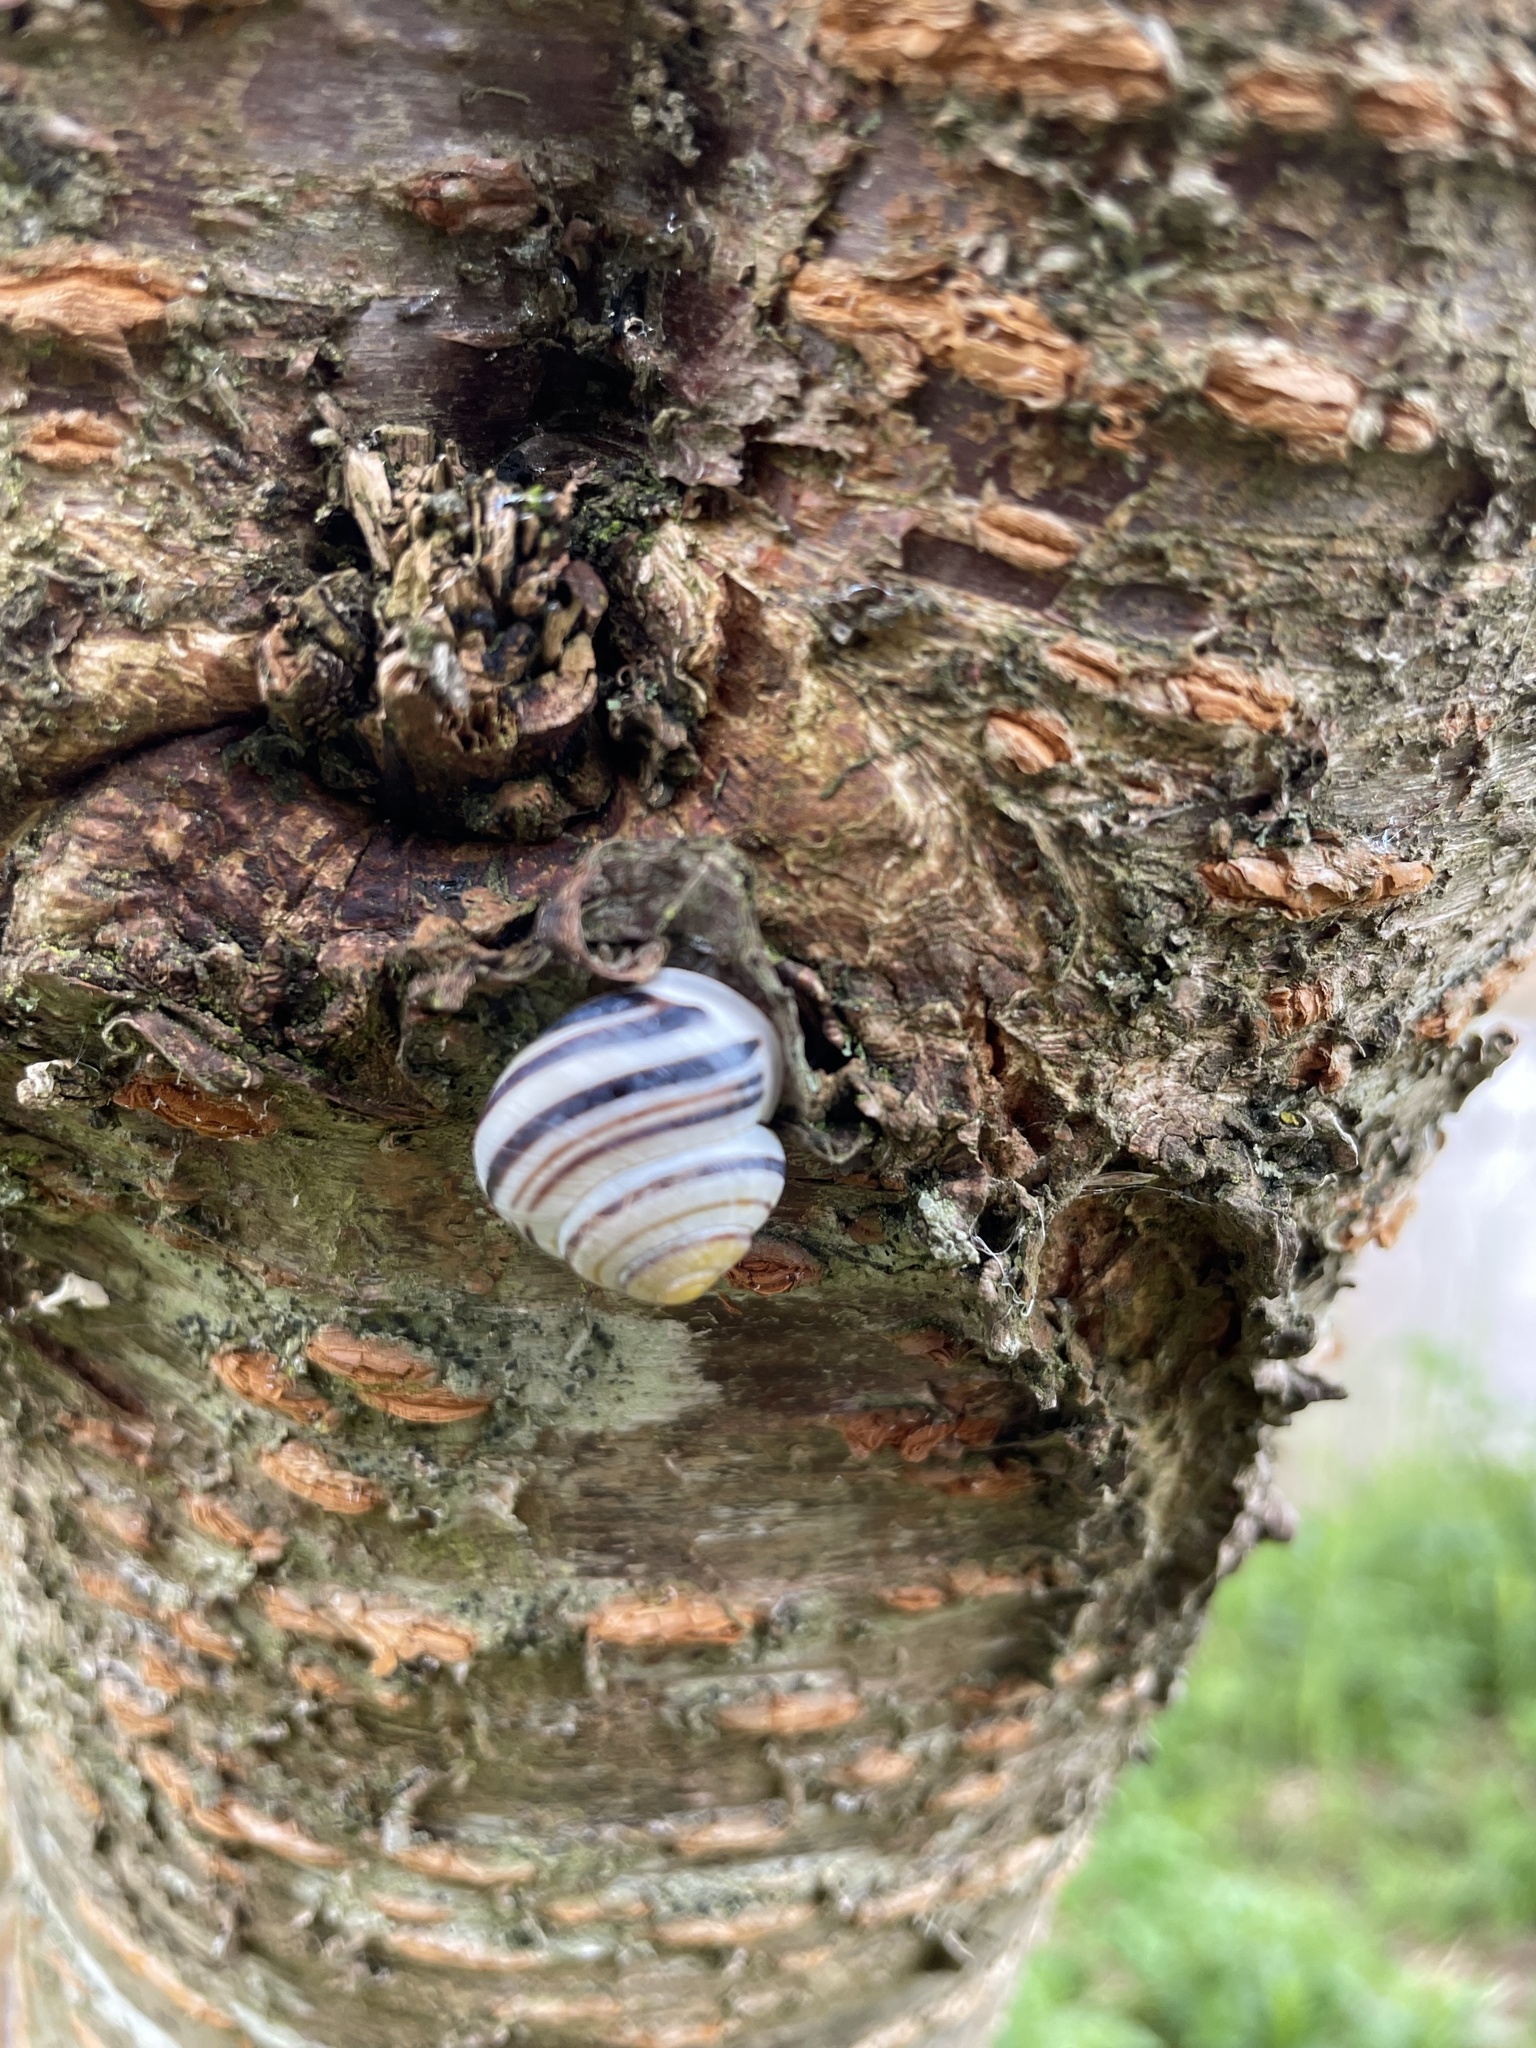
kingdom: Animalia
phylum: Mollusca
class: Gastropoda
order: Stylommatophora
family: Helicidae
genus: Cepaea
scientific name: Cepaea hortensis
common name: White-lip gardensnail
